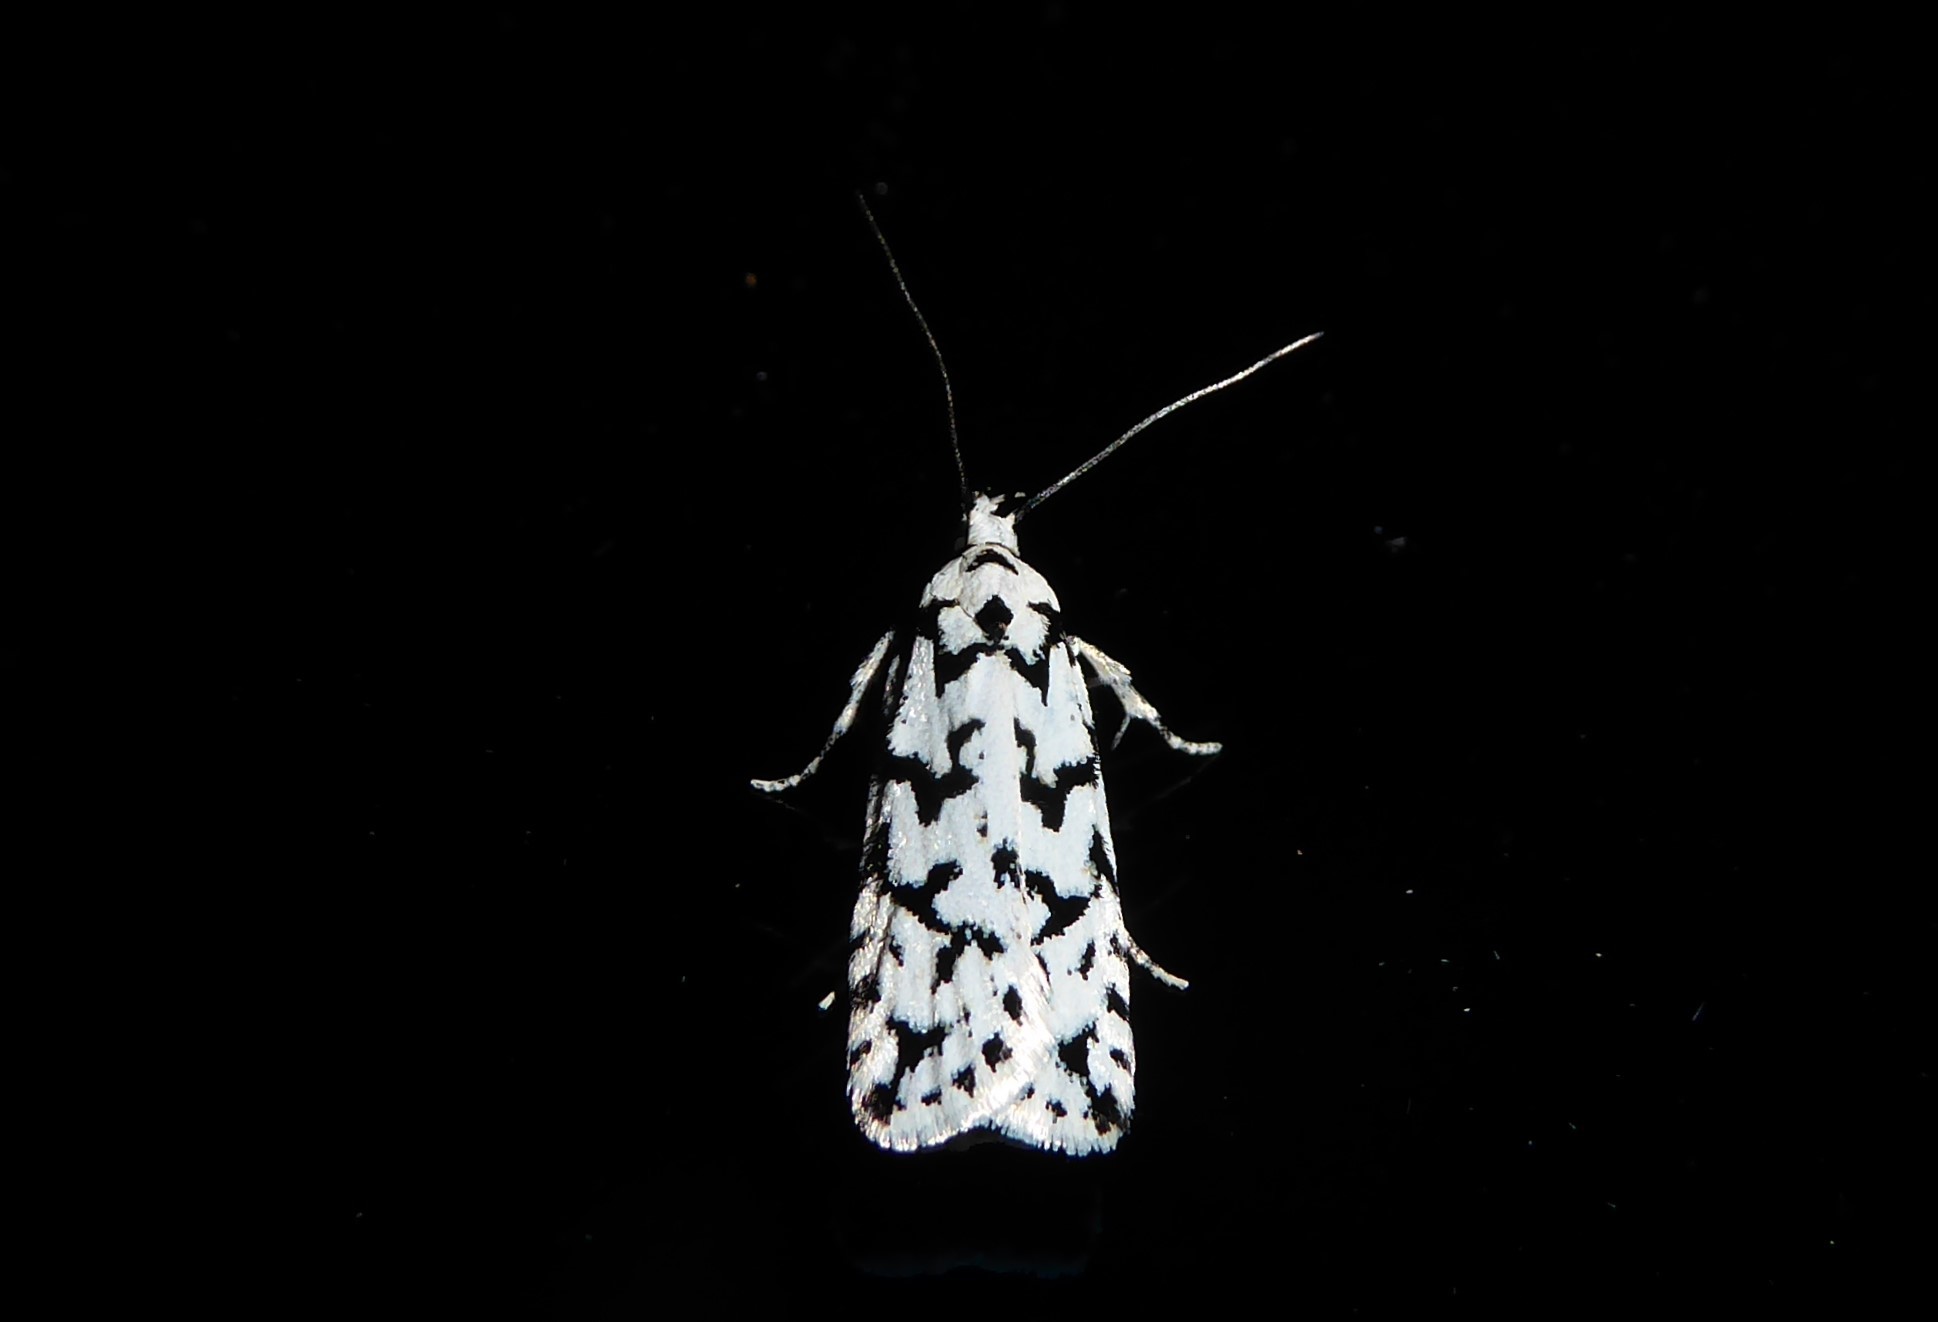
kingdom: Animalia
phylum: Arthropoda
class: Insecta
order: Lepidoptera
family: Oecophoridae
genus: Izatha
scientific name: Izatha katadiktya
